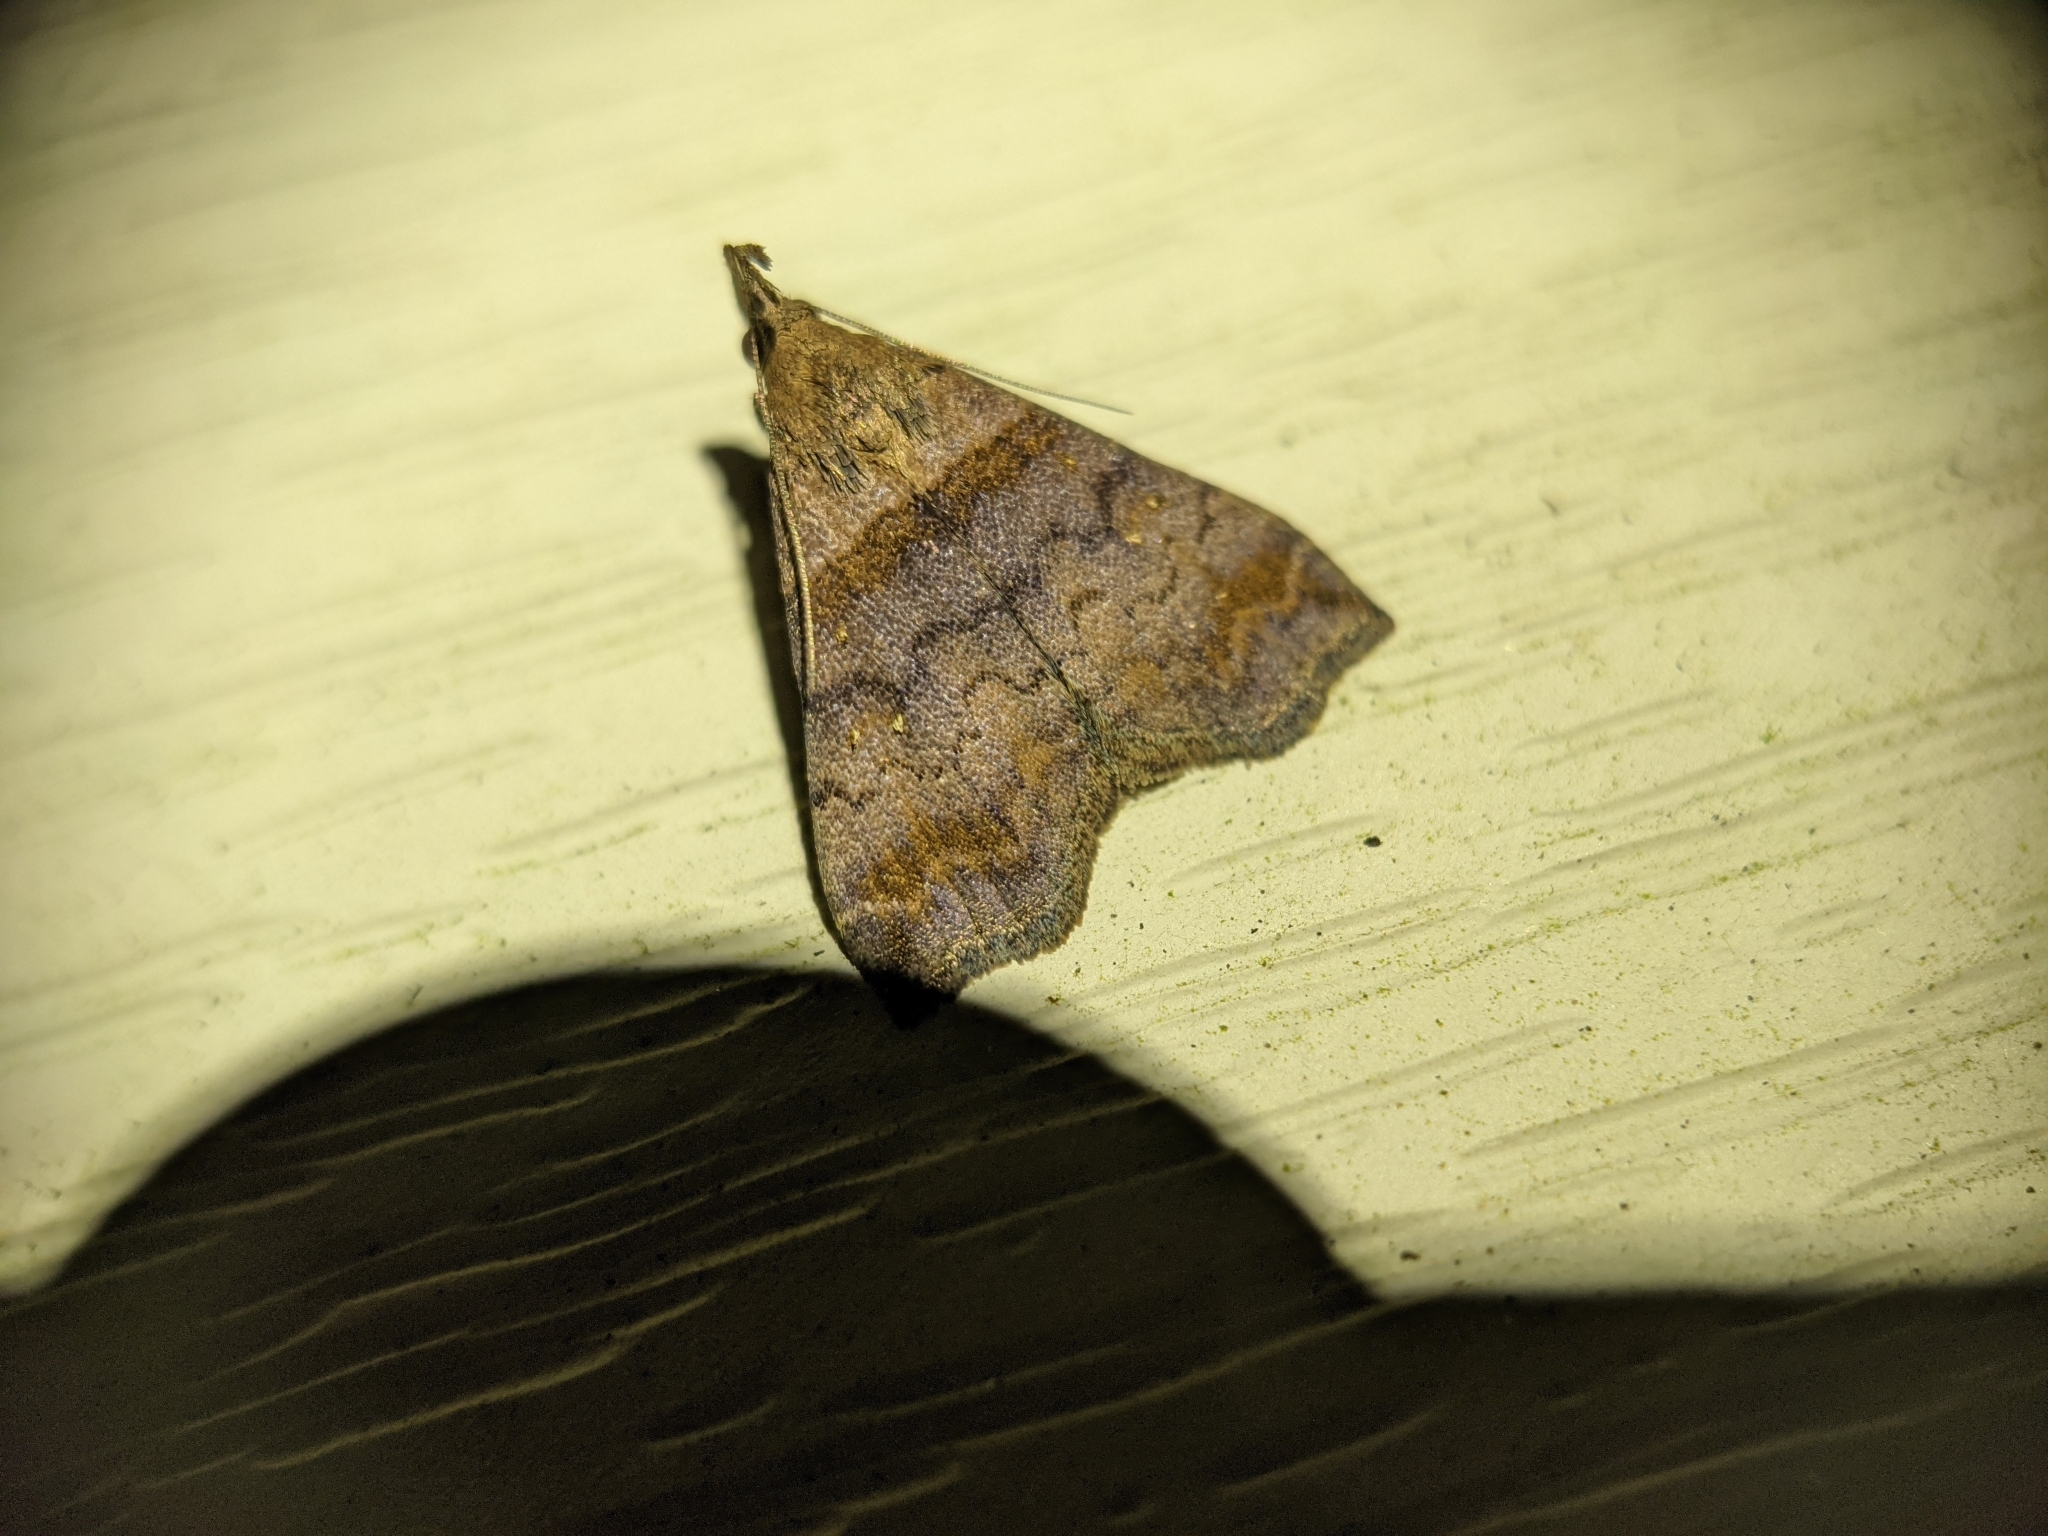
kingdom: Animalia
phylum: Arthropoda
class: Insecta
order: Lepidoptera
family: Erebidae
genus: Lascoria
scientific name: Lascoria ambigualis
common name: Ambiguous moth
